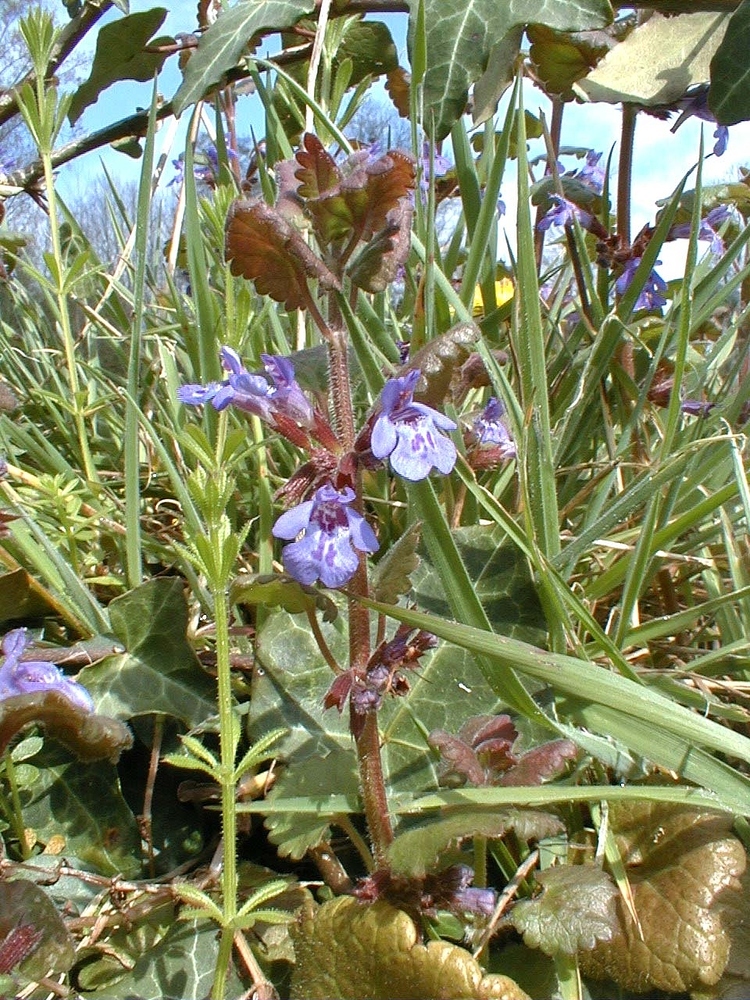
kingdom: Plantae
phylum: Tracheophyta
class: Magnoliopsida
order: Lamiales
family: Lamiaceae
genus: Glechoma
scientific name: Glechoma hederacea
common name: Ground ivy
